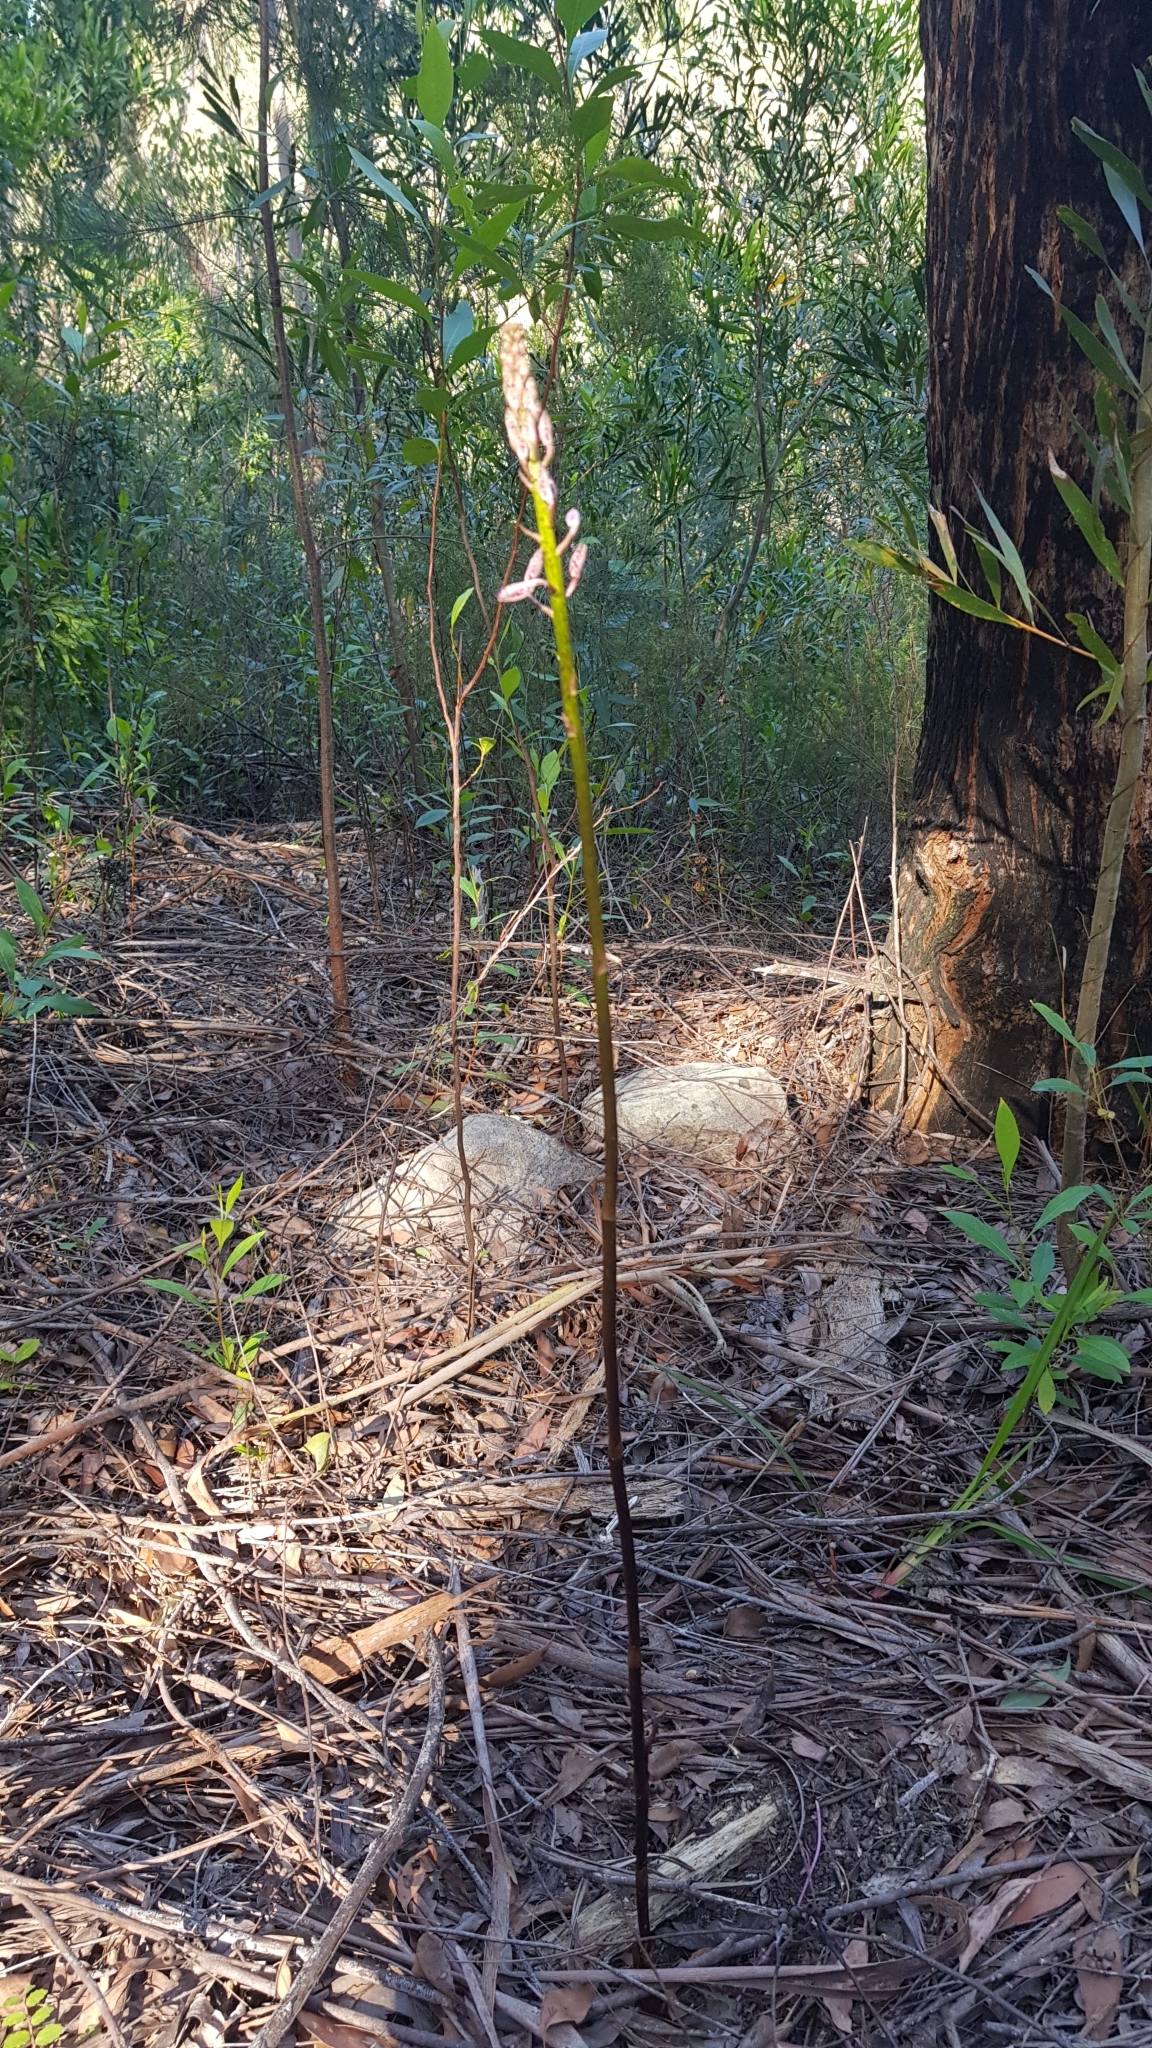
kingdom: Plantae
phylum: Tracheophyta
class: Liliopsida
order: Asparagales
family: Orchidaceae
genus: Dipodium
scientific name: Dipodium variegatum
